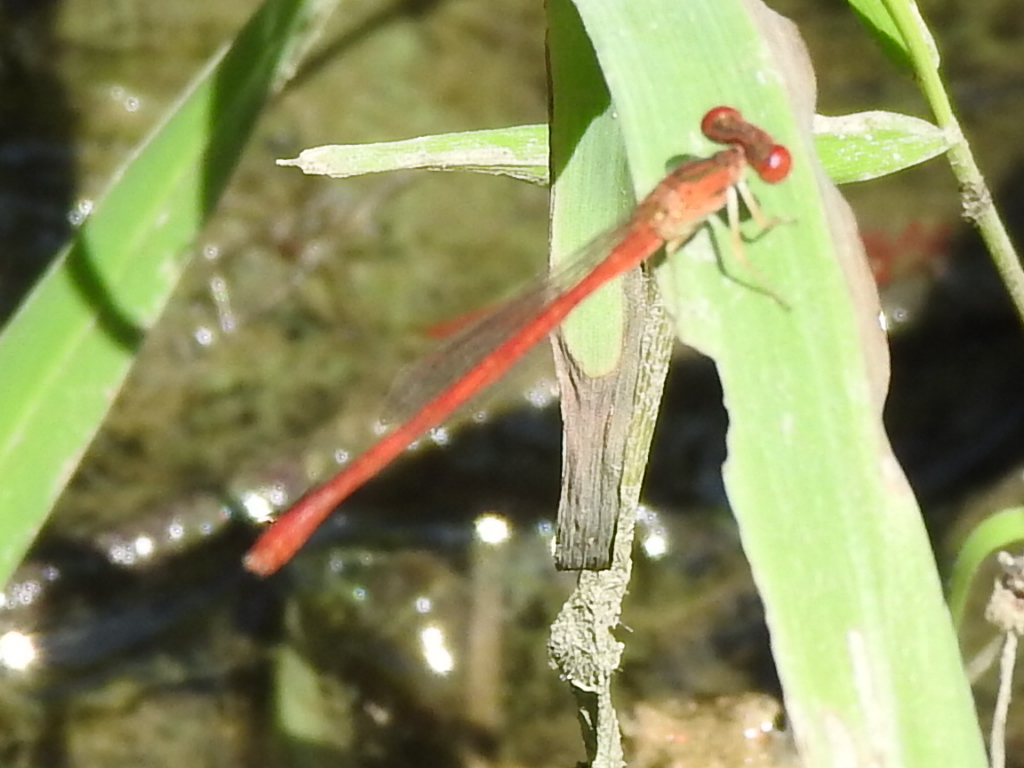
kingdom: Animalia
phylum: Arthropoda
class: Insecta
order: Odonata
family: Coenagrionidae
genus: Telebasis
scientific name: Telebasis salva
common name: Desert firetail
